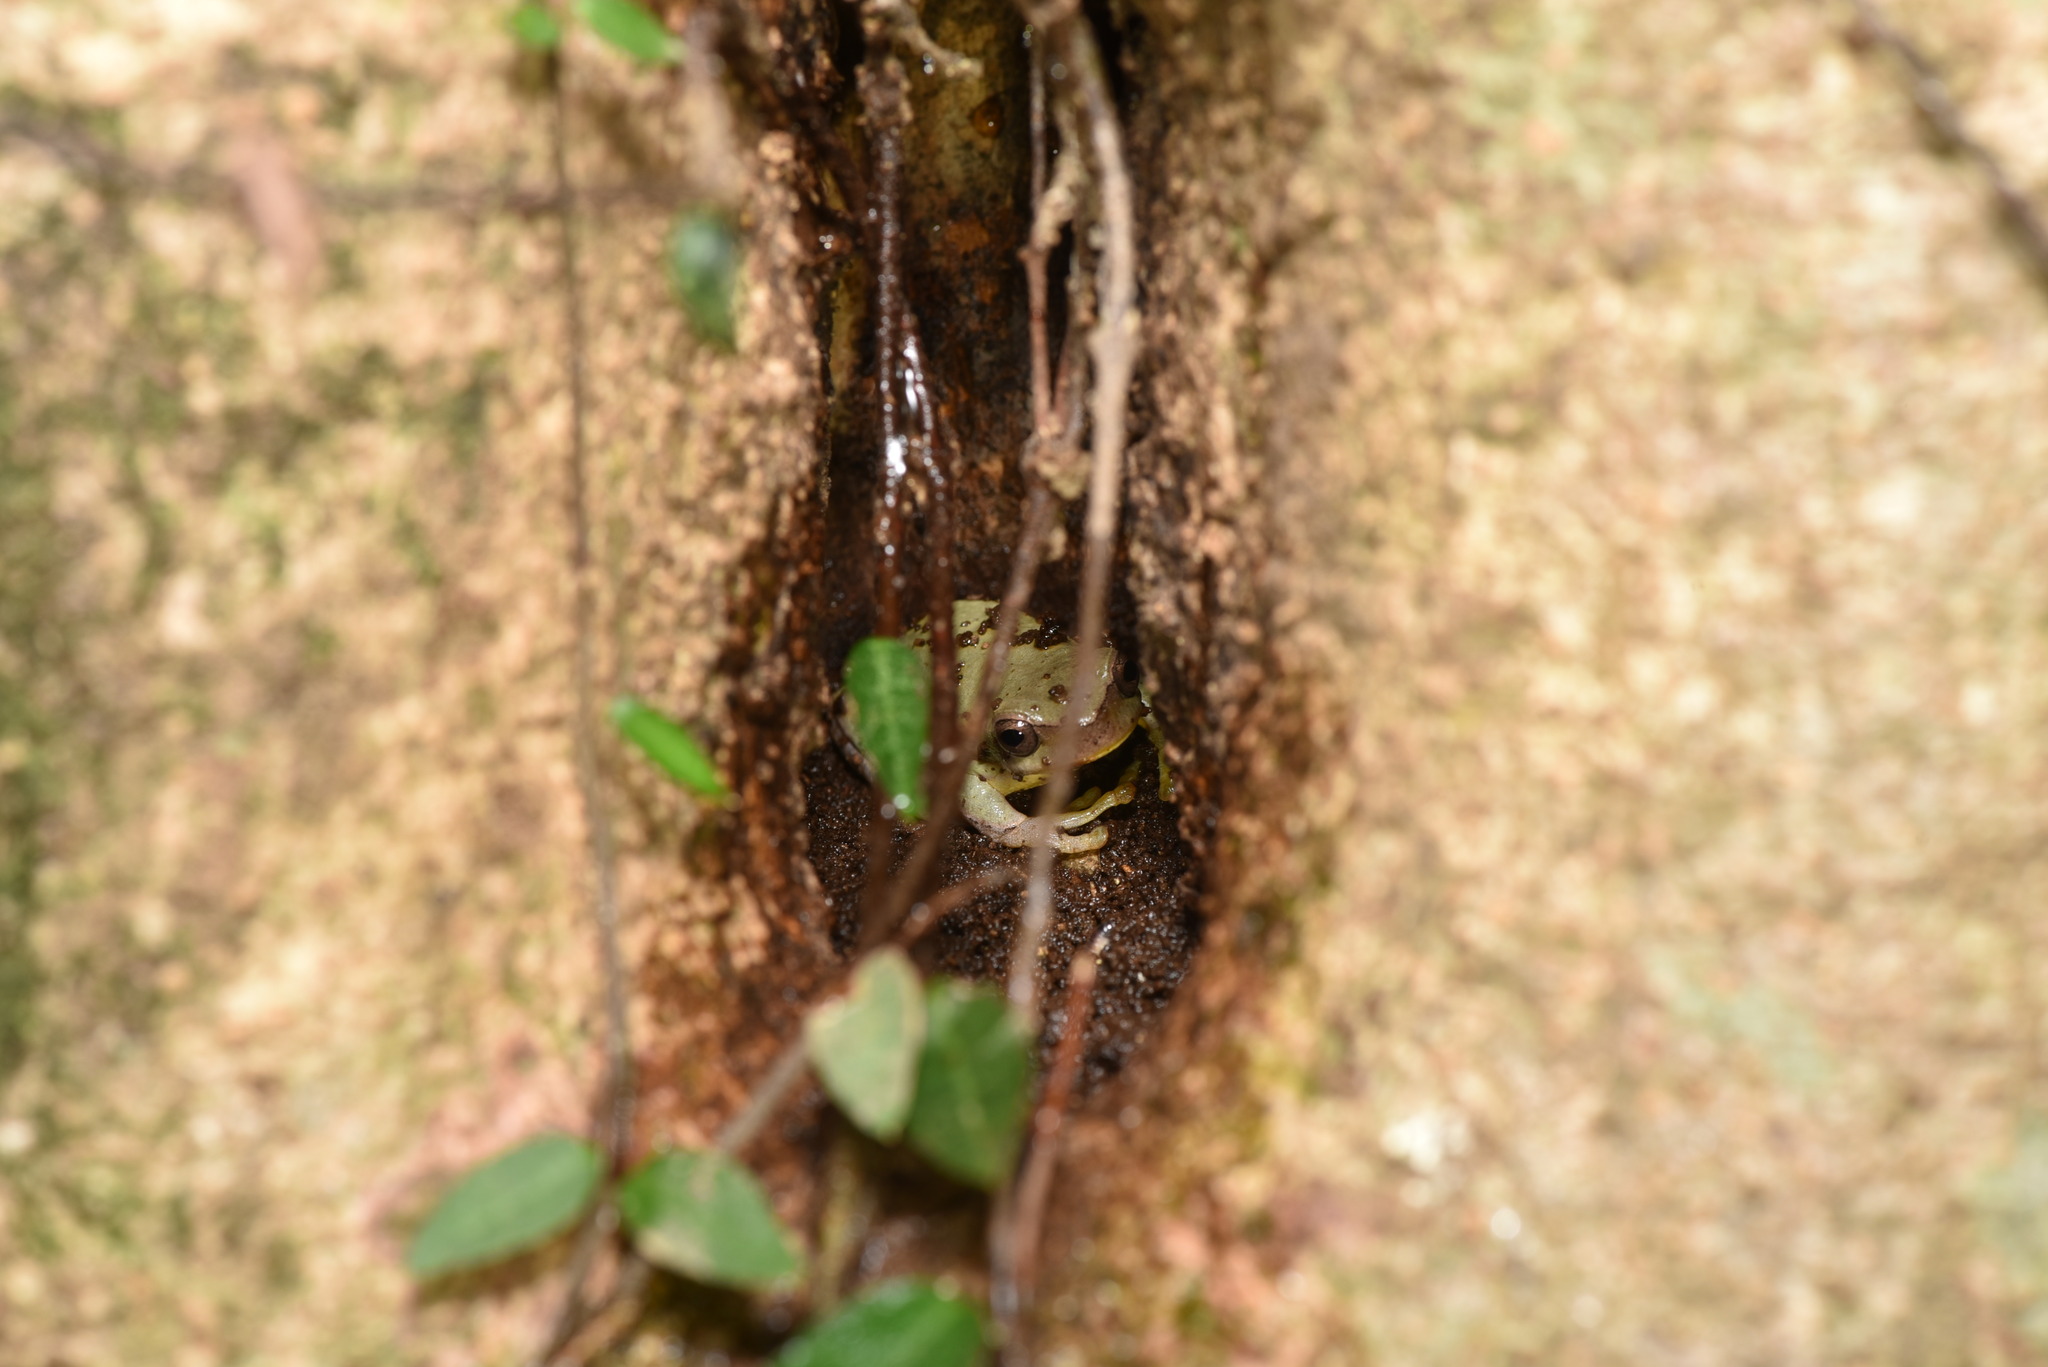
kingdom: Animalia
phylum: Chordata
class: Amphibia
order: Anura
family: Hylidae
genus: Hyla
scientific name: Hyla chinensis
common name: Common chinese treefrog
